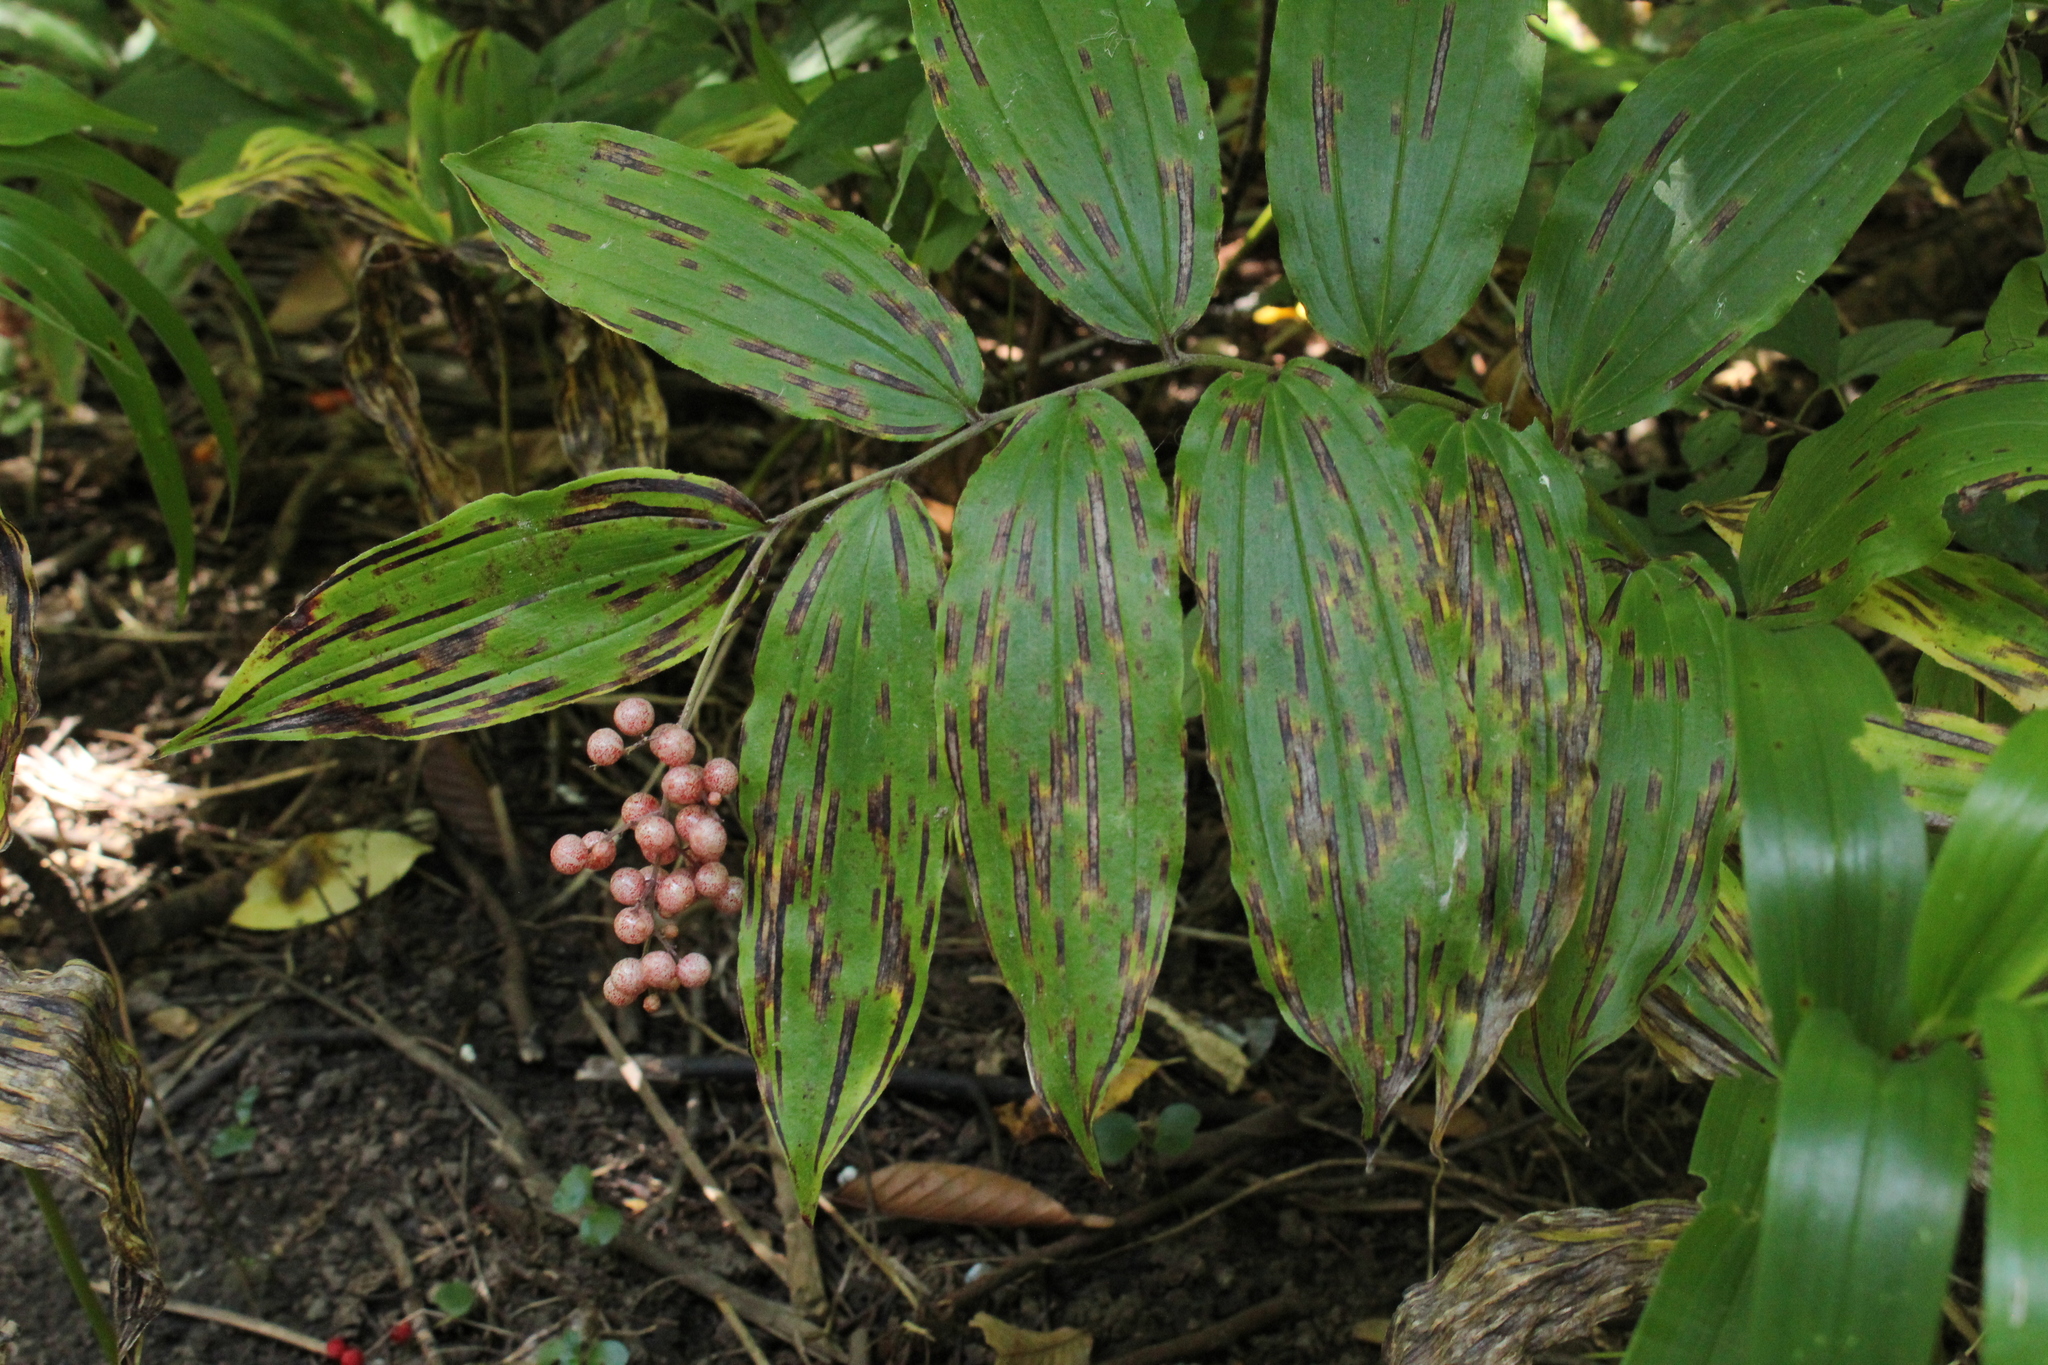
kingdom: Plantae
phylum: Tracheophyta
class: Liliopsida
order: Asparagales
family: Asparagaceae
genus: Maianthemum
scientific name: Maianthemum racemosum
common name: False spikenard
